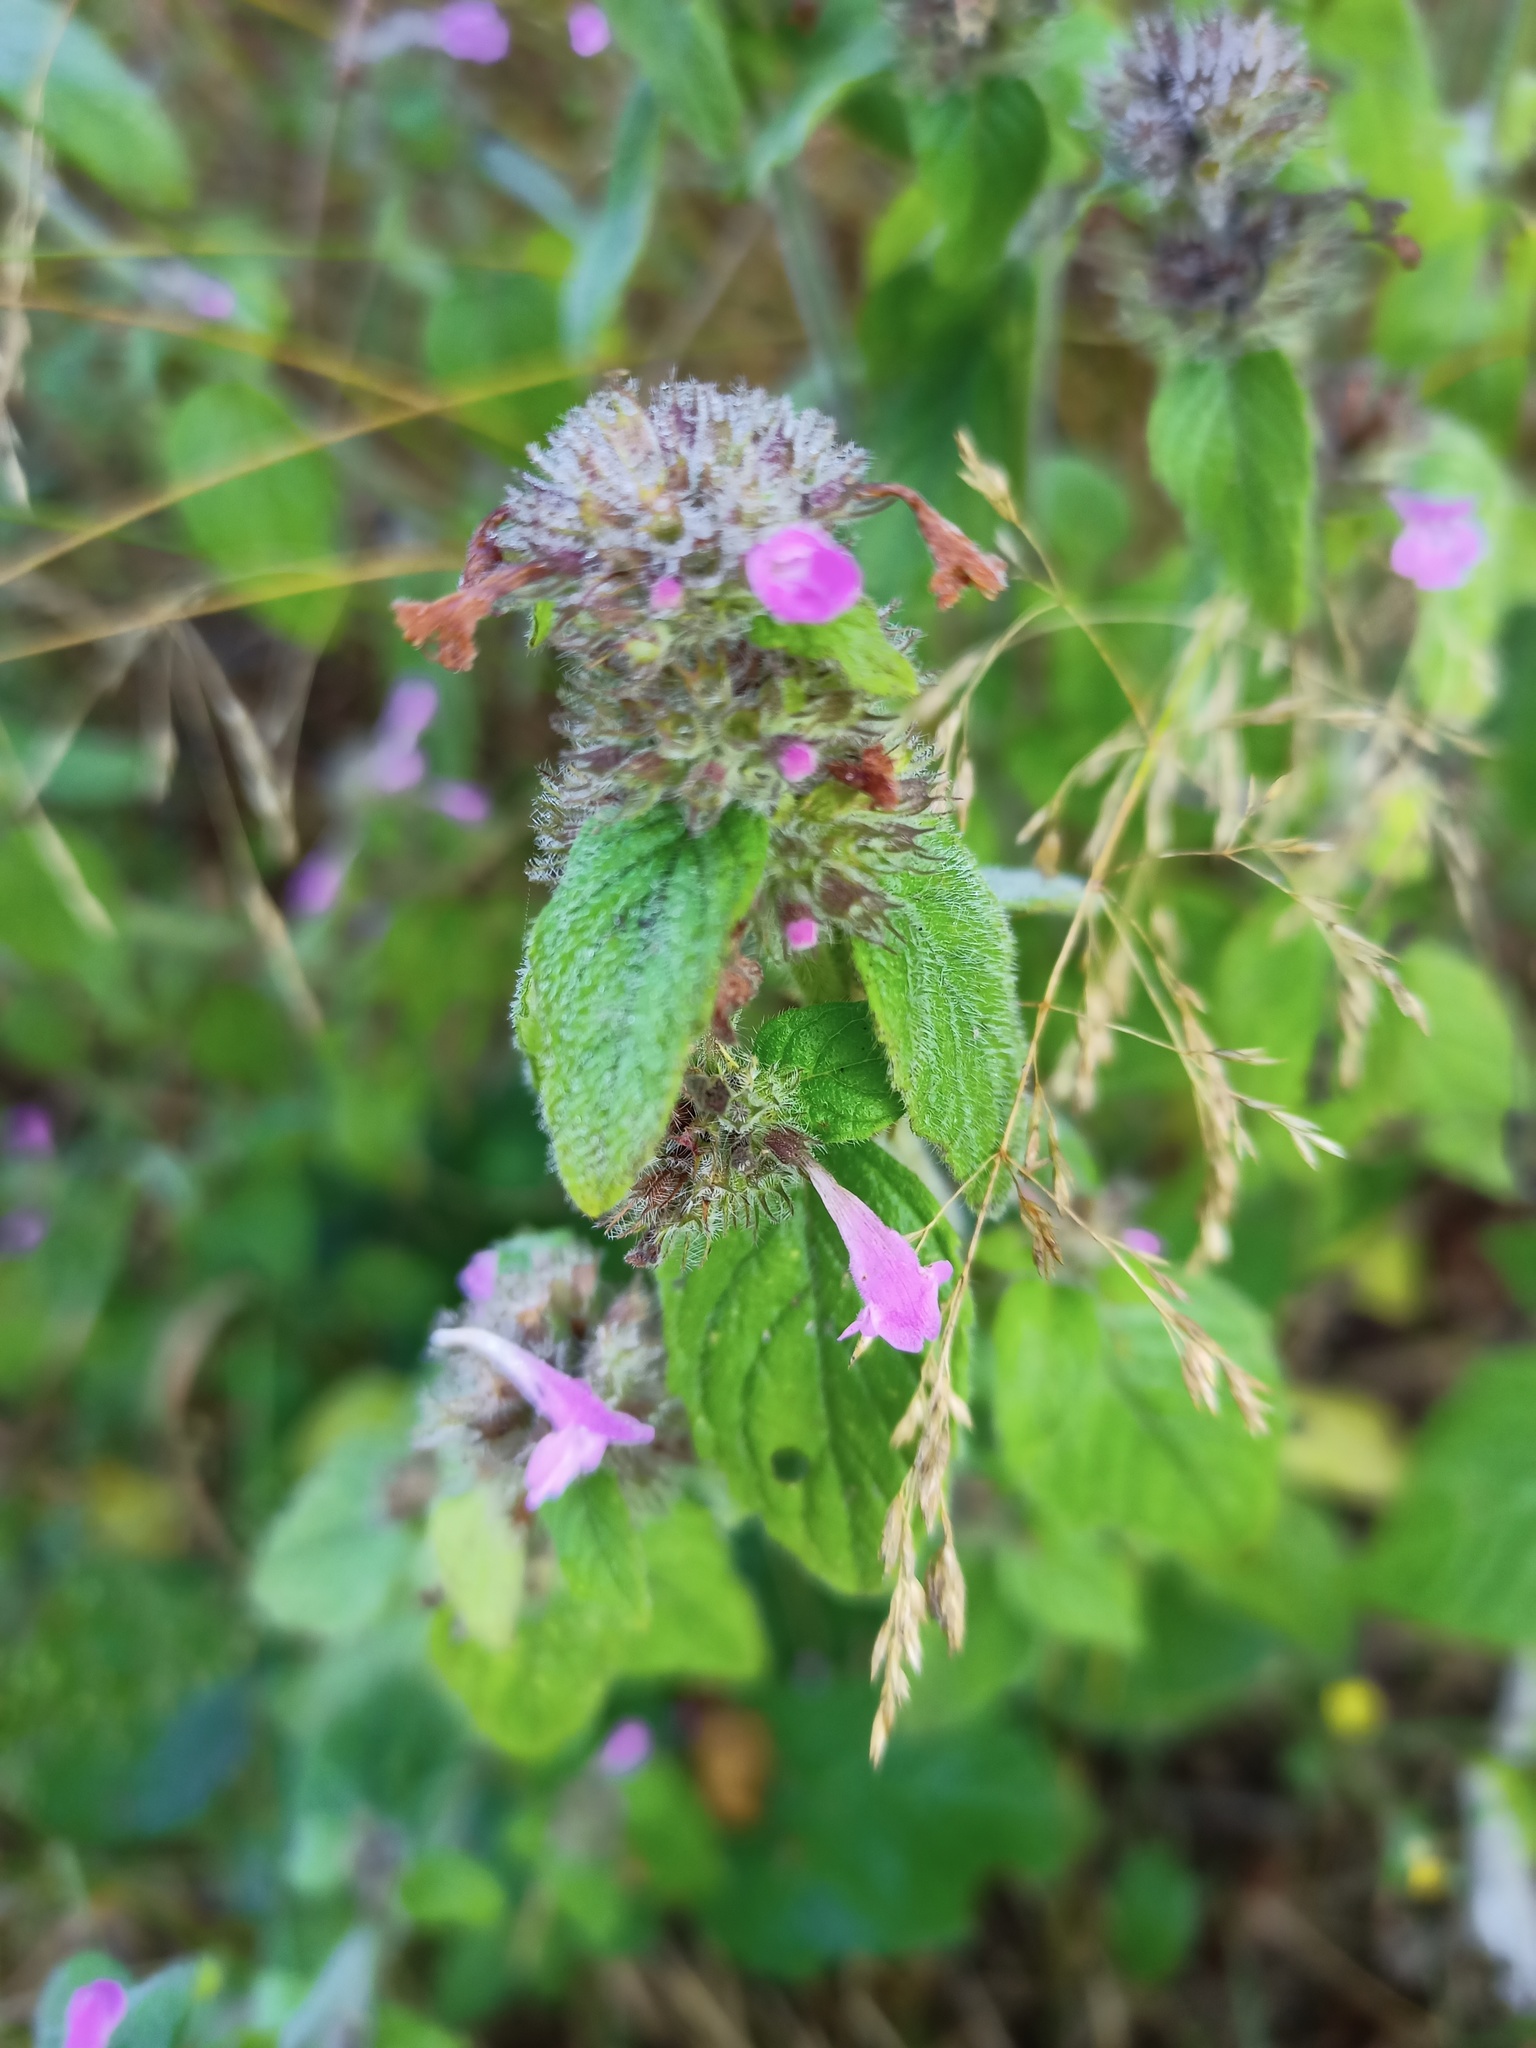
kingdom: Plantae
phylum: Tracheophyta
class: Magnoliopsida
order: Lamiales
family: Lamiaceae
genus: Clinopodium
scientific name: Clinopodium vulgare
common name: Wild basil
